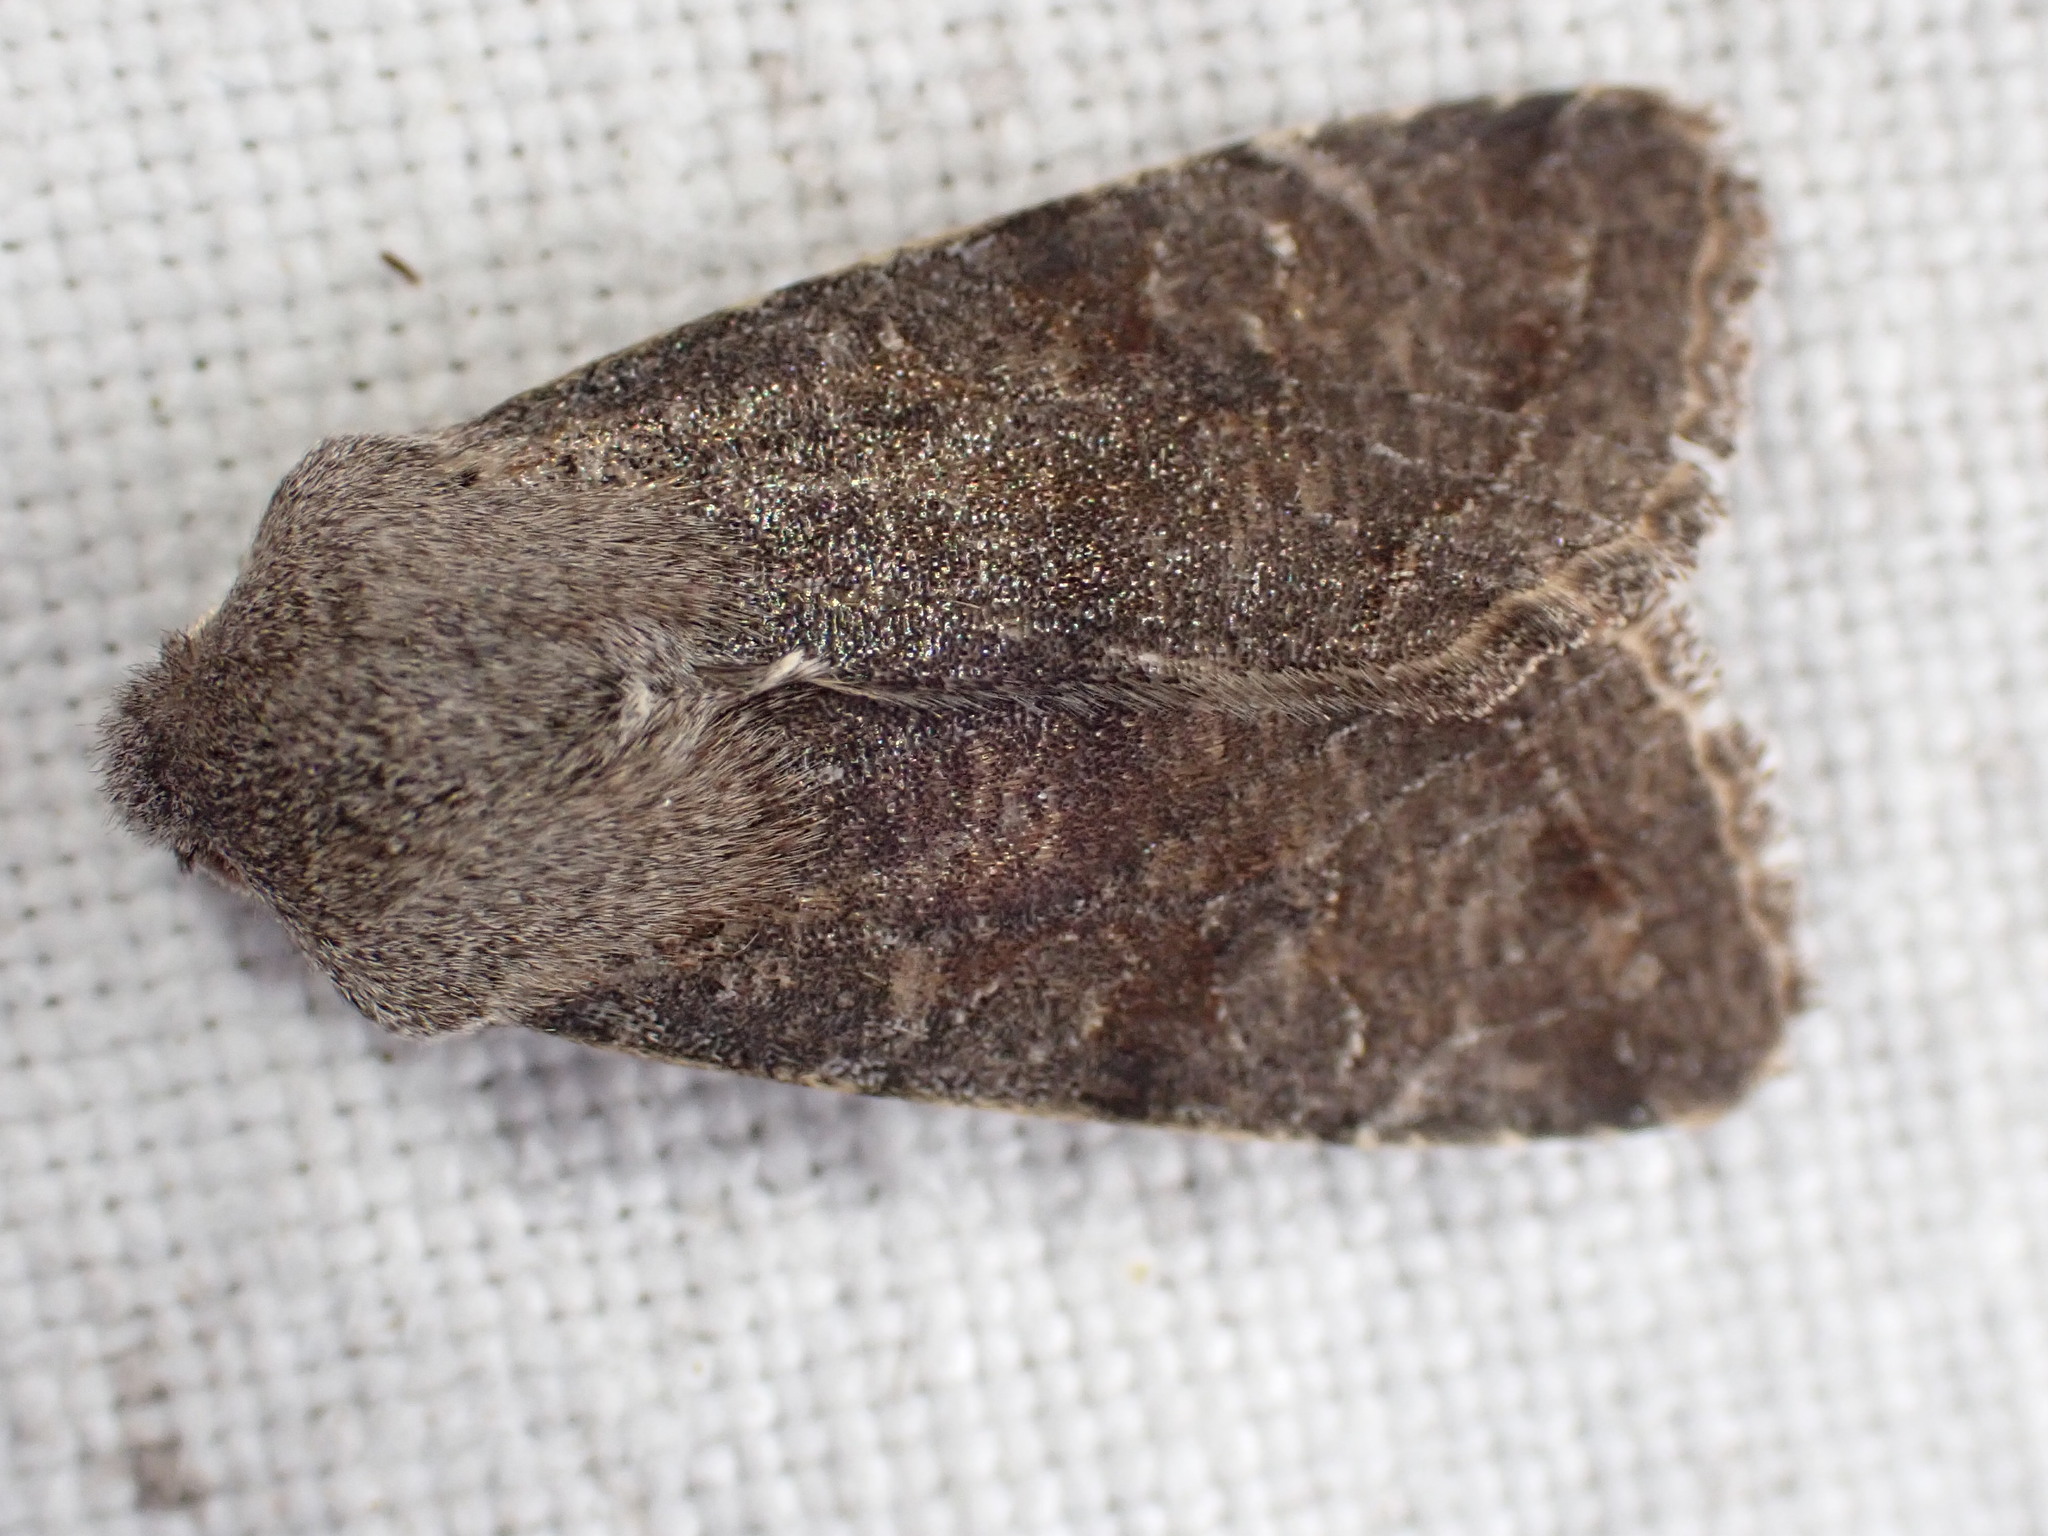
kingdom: Animalia
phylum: Arthropoda
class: Insecta
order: Lepidoptera
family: Noctuidae
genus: Orthosia
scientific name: Orthosia incerta
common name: Clouded drab
